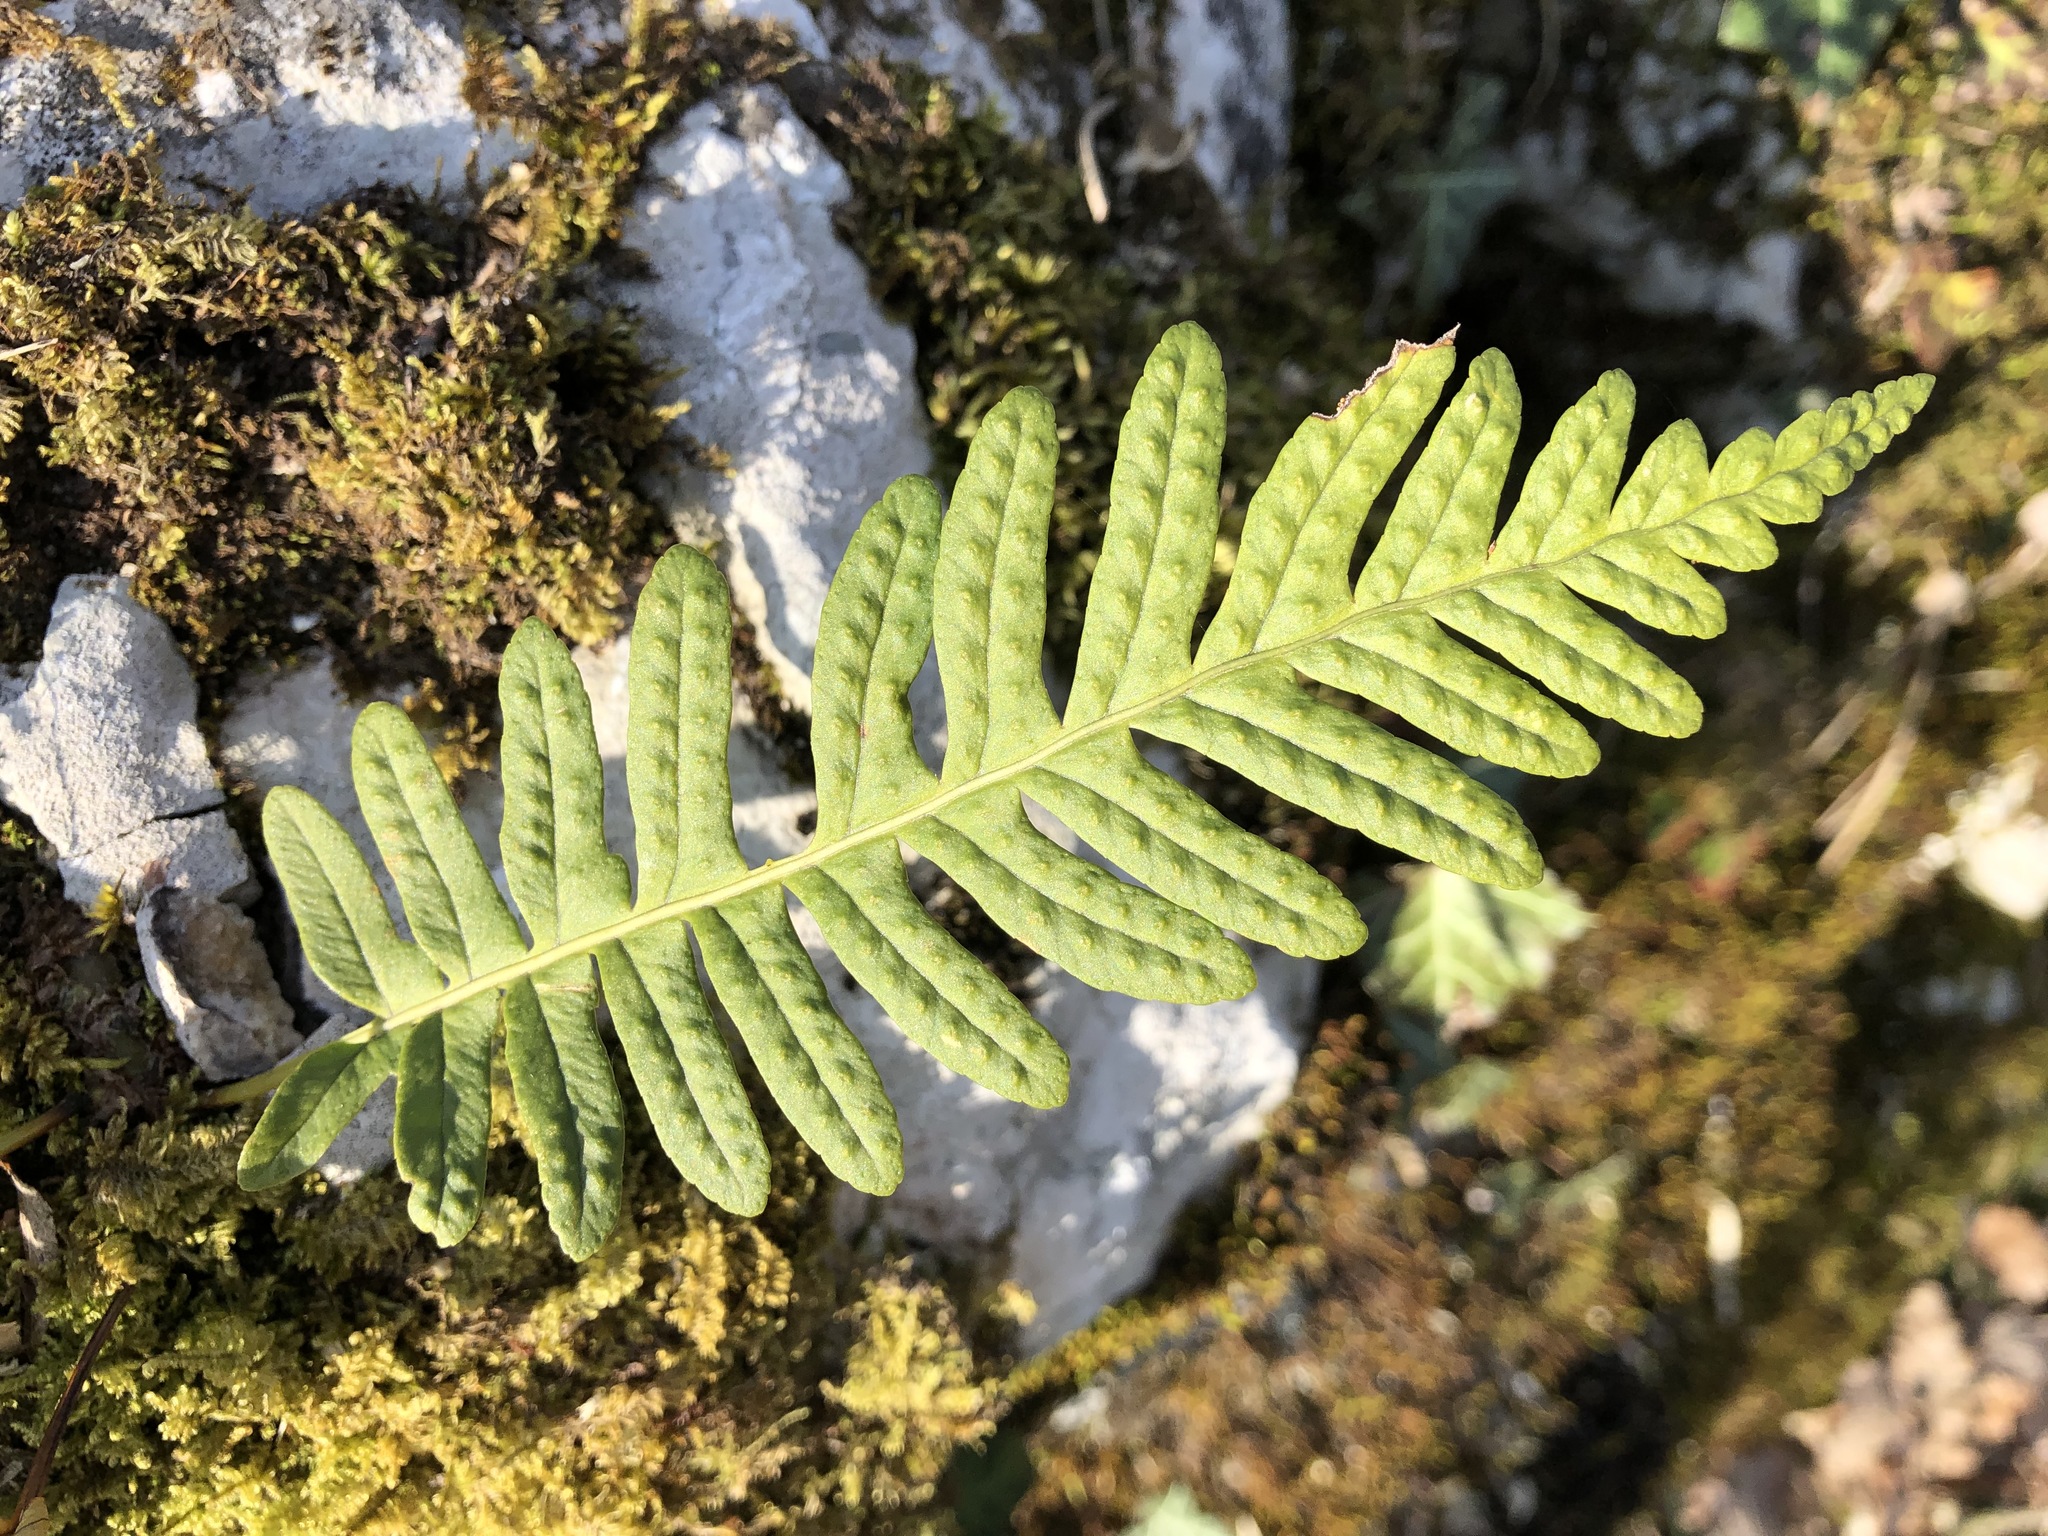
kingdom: Plantae
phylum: Tracheophyta
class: Polypodiopsida
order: Polypodiales
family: Polypodiaceae
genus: Polypodium
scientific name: Polypodium vulgare
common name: Common polypody
